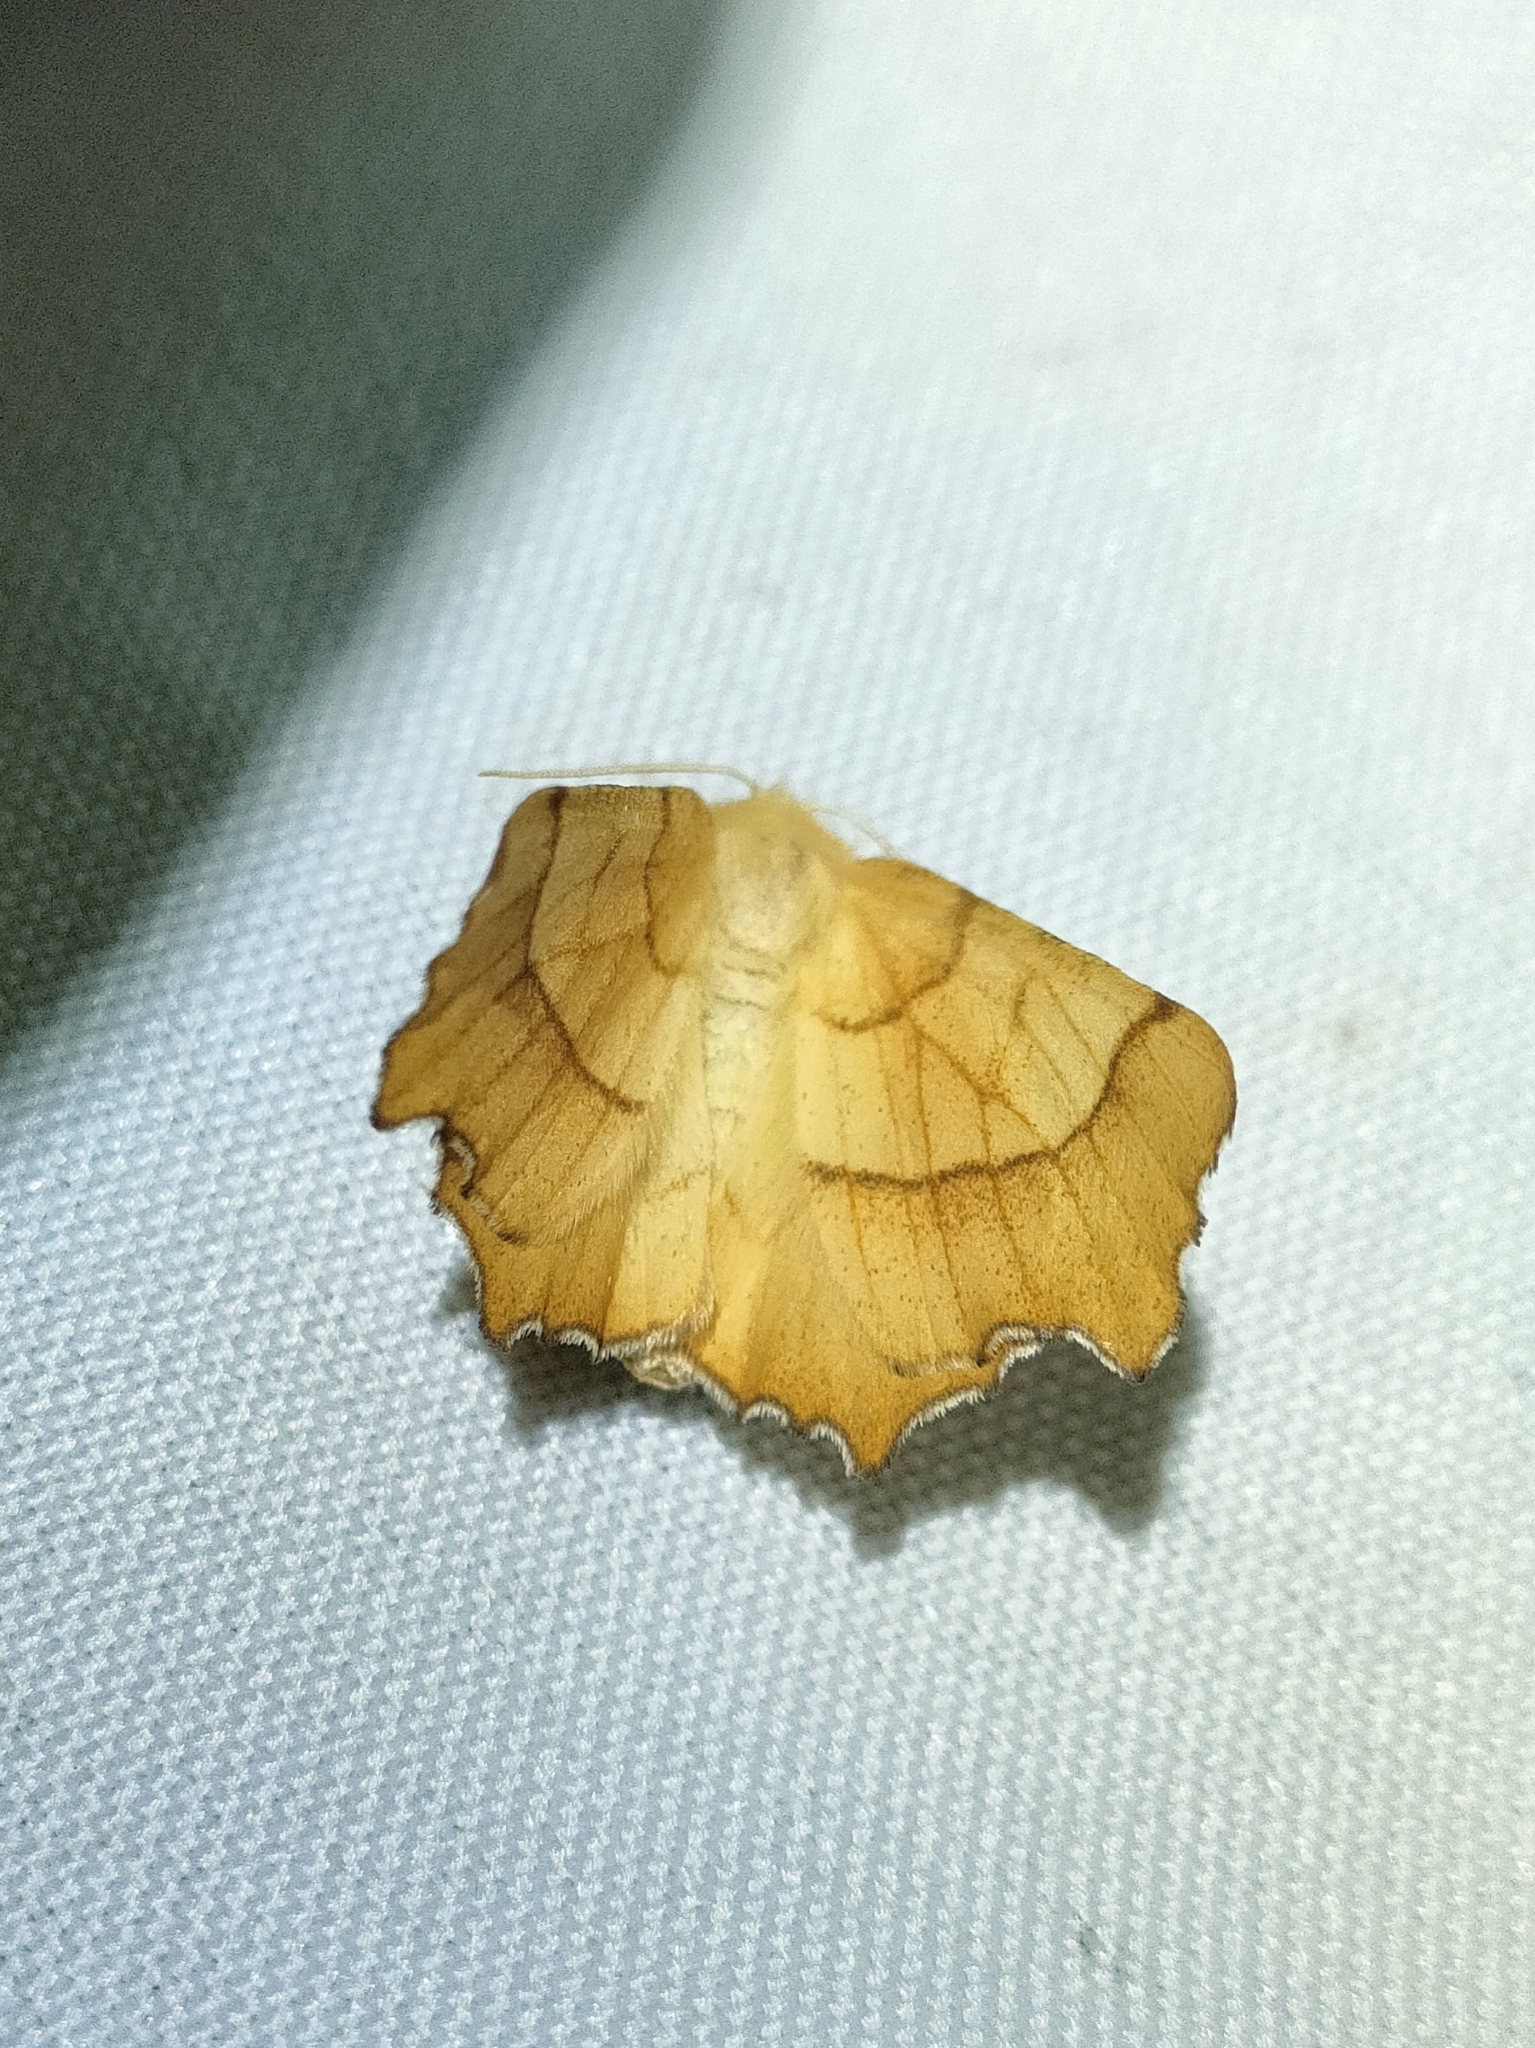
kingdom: Animalia
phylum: Arthropoda
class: Insecta
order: Lepidoptera
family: Geometridae
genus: Ennomos
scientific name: Ennomos quercinaria
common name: August thorn
